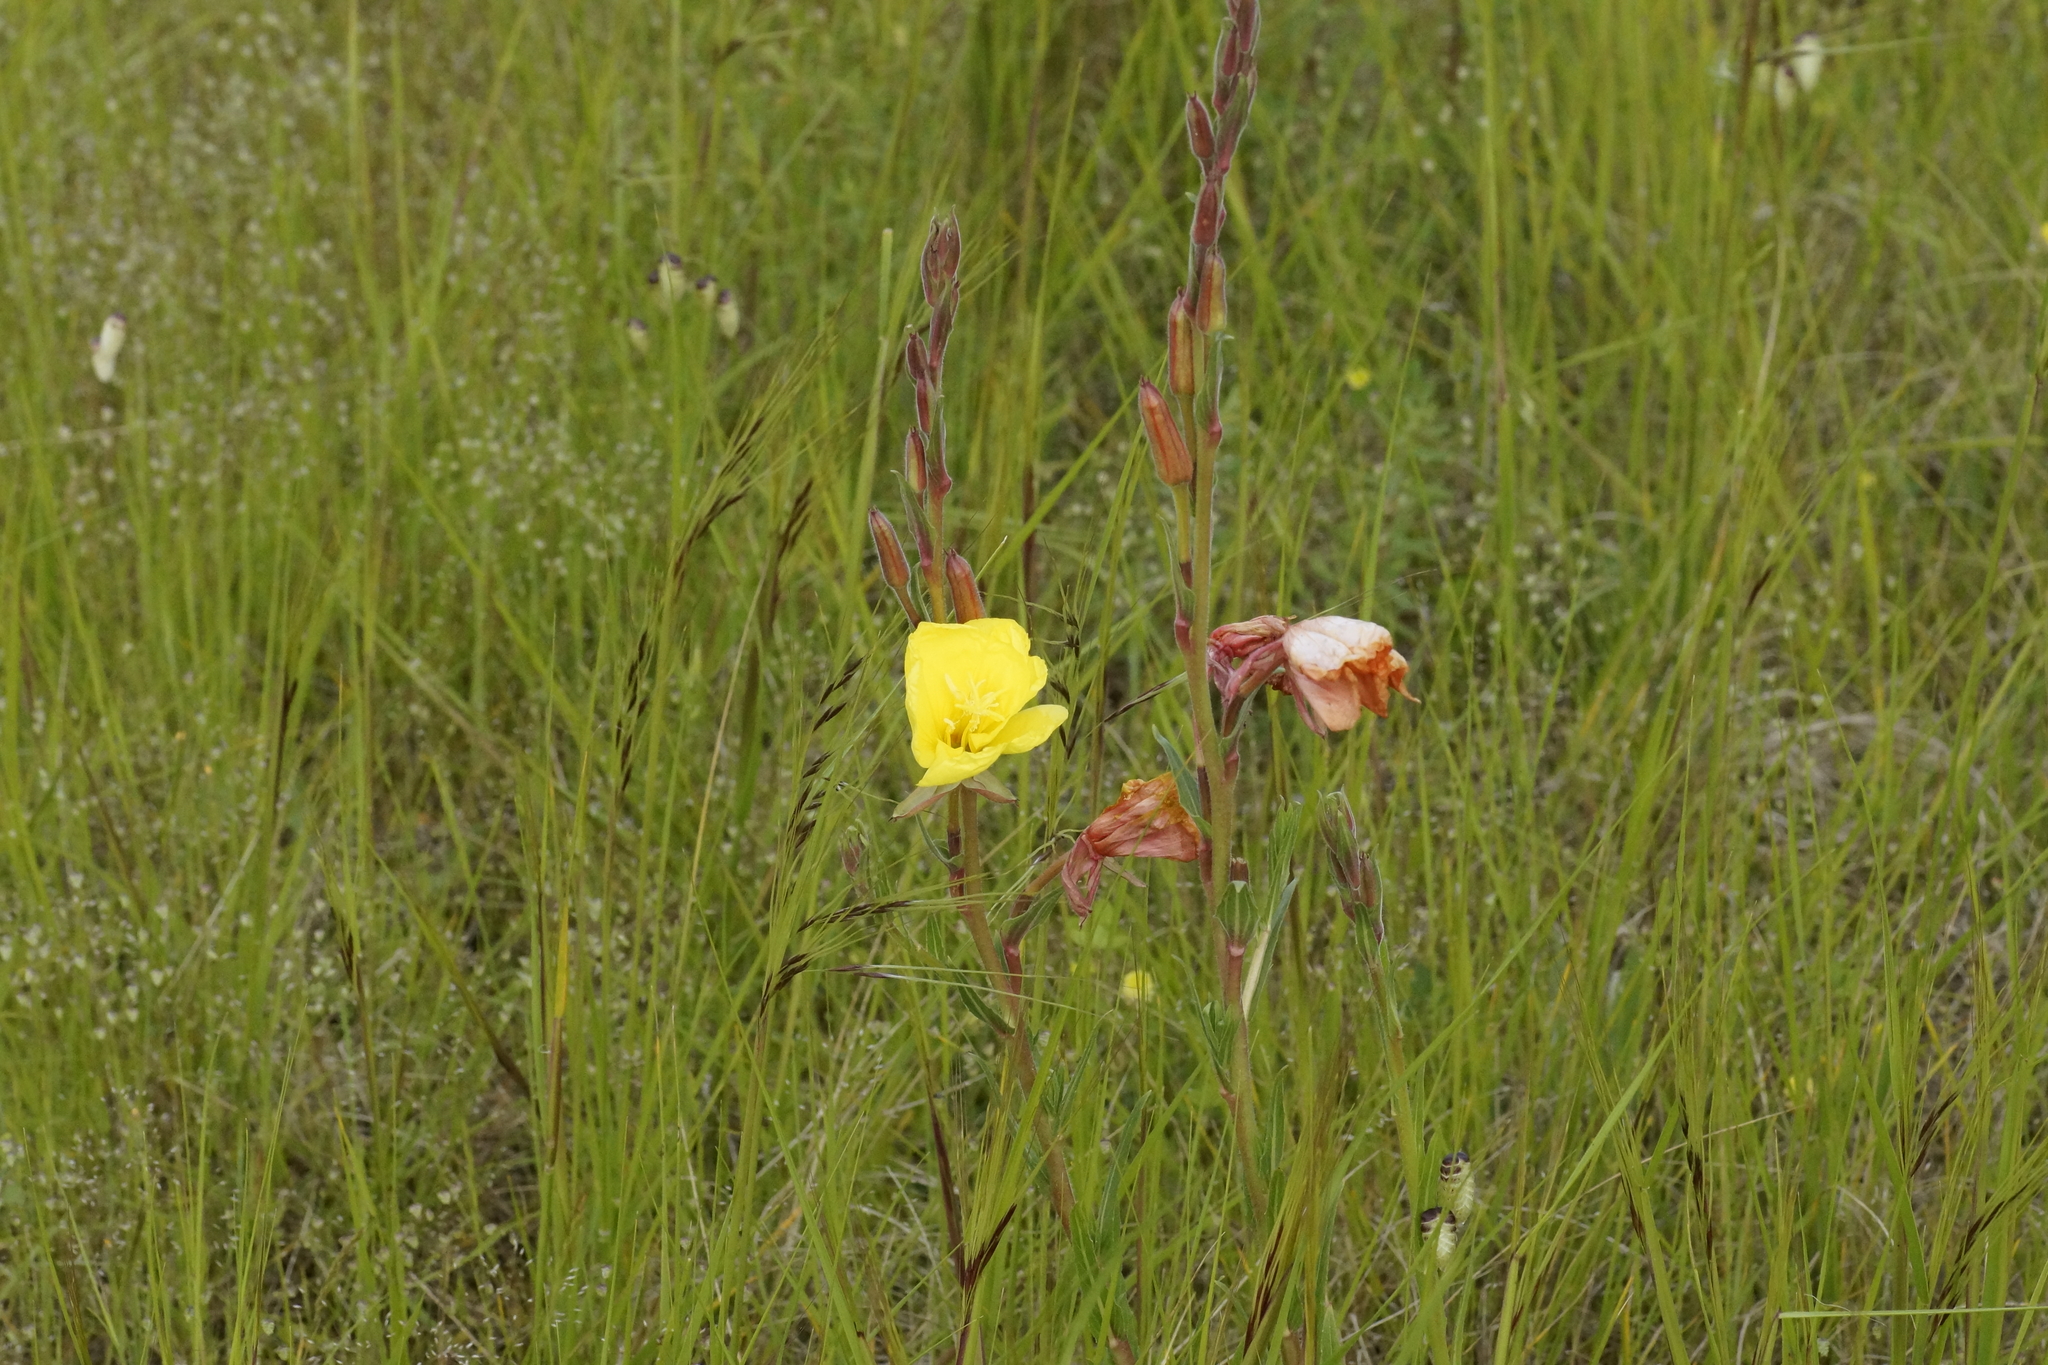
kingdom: Plantae
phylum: Tracheophyta
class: Magnoliopsida
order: Myrtales
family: Onagraceae
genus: Oenothera
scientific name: Oenothera elata
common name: Hooker's evening-primrose
